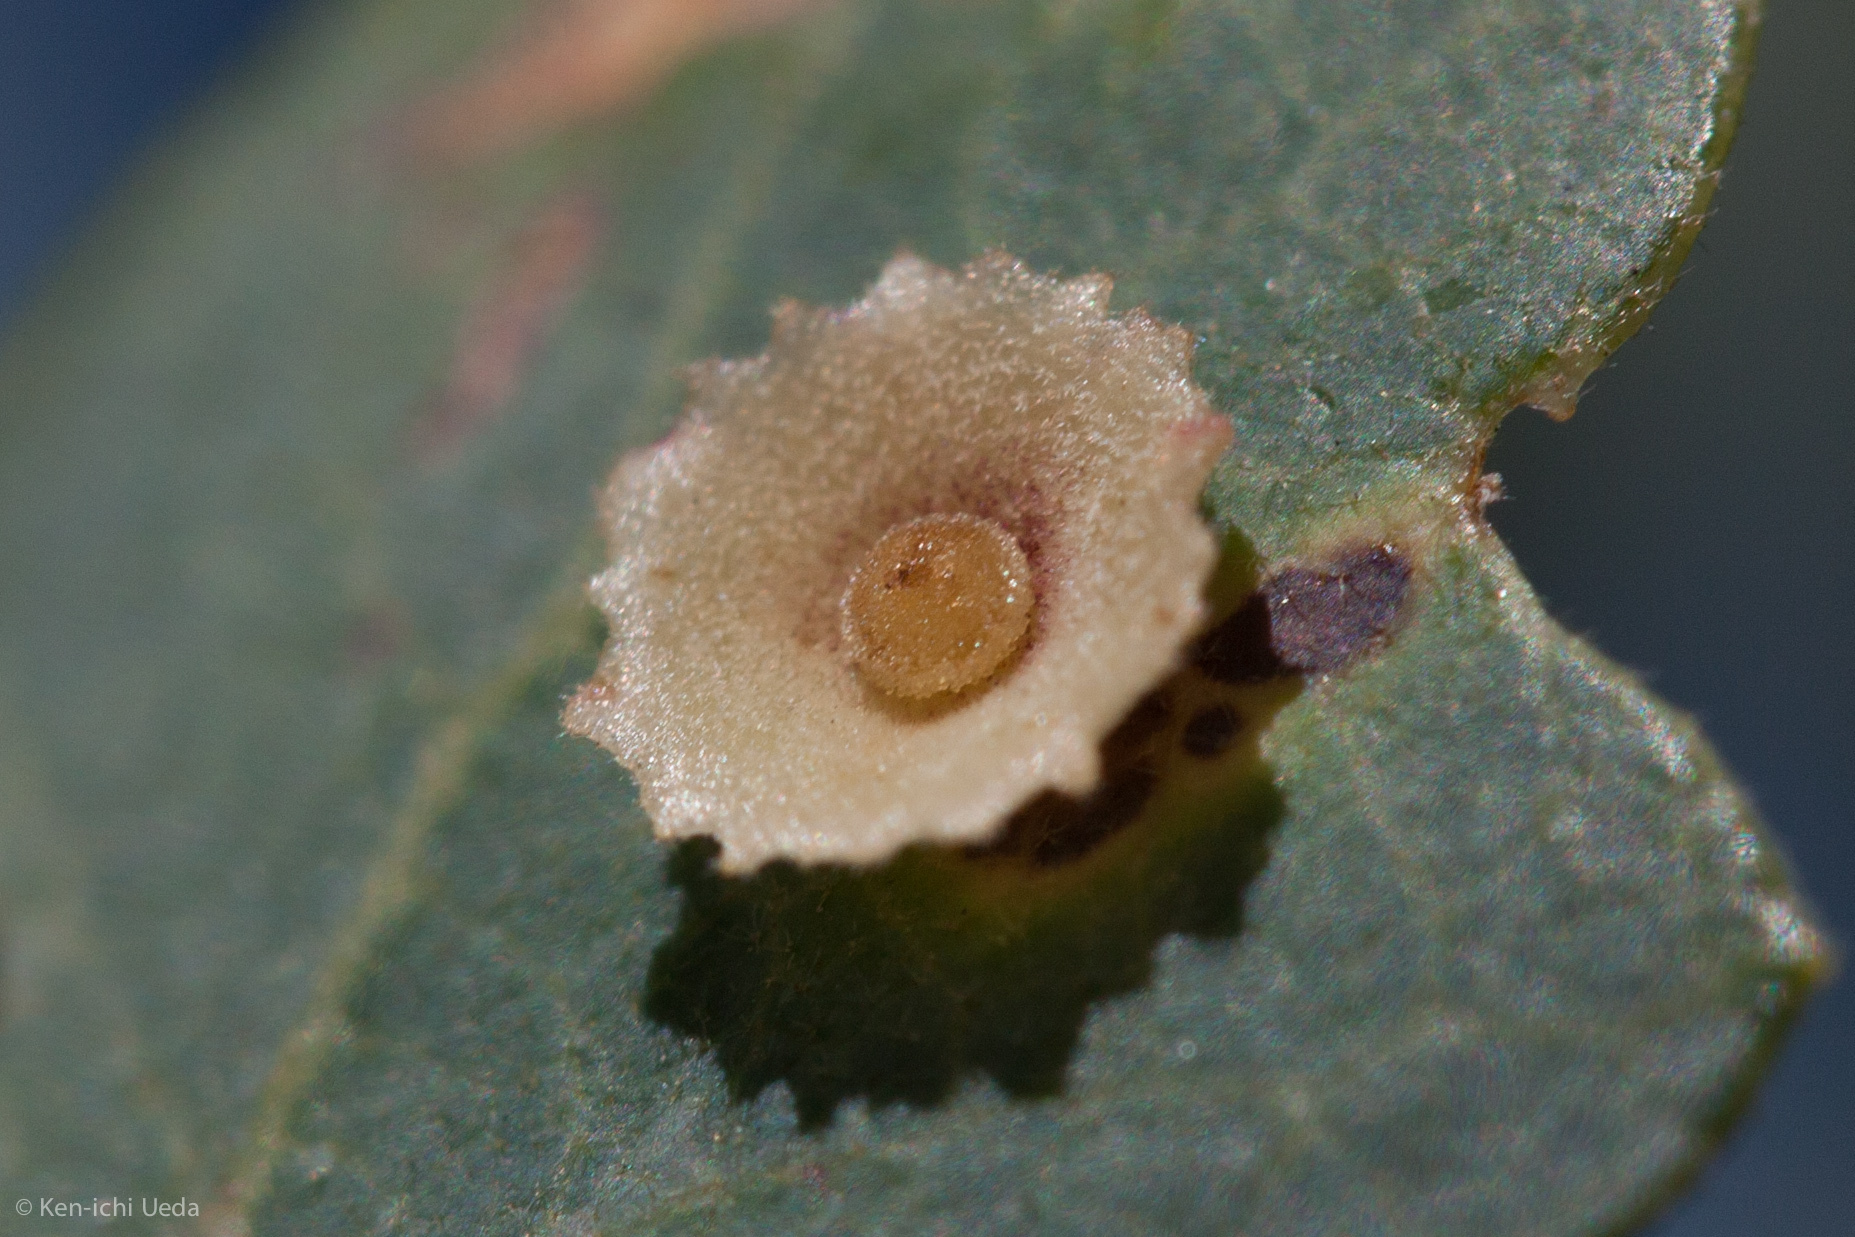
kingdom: Animalia
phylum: Arthropoda
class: Insecta
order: Hymenoptera
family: Cynipidae
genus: Andricus
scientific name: Andricus
